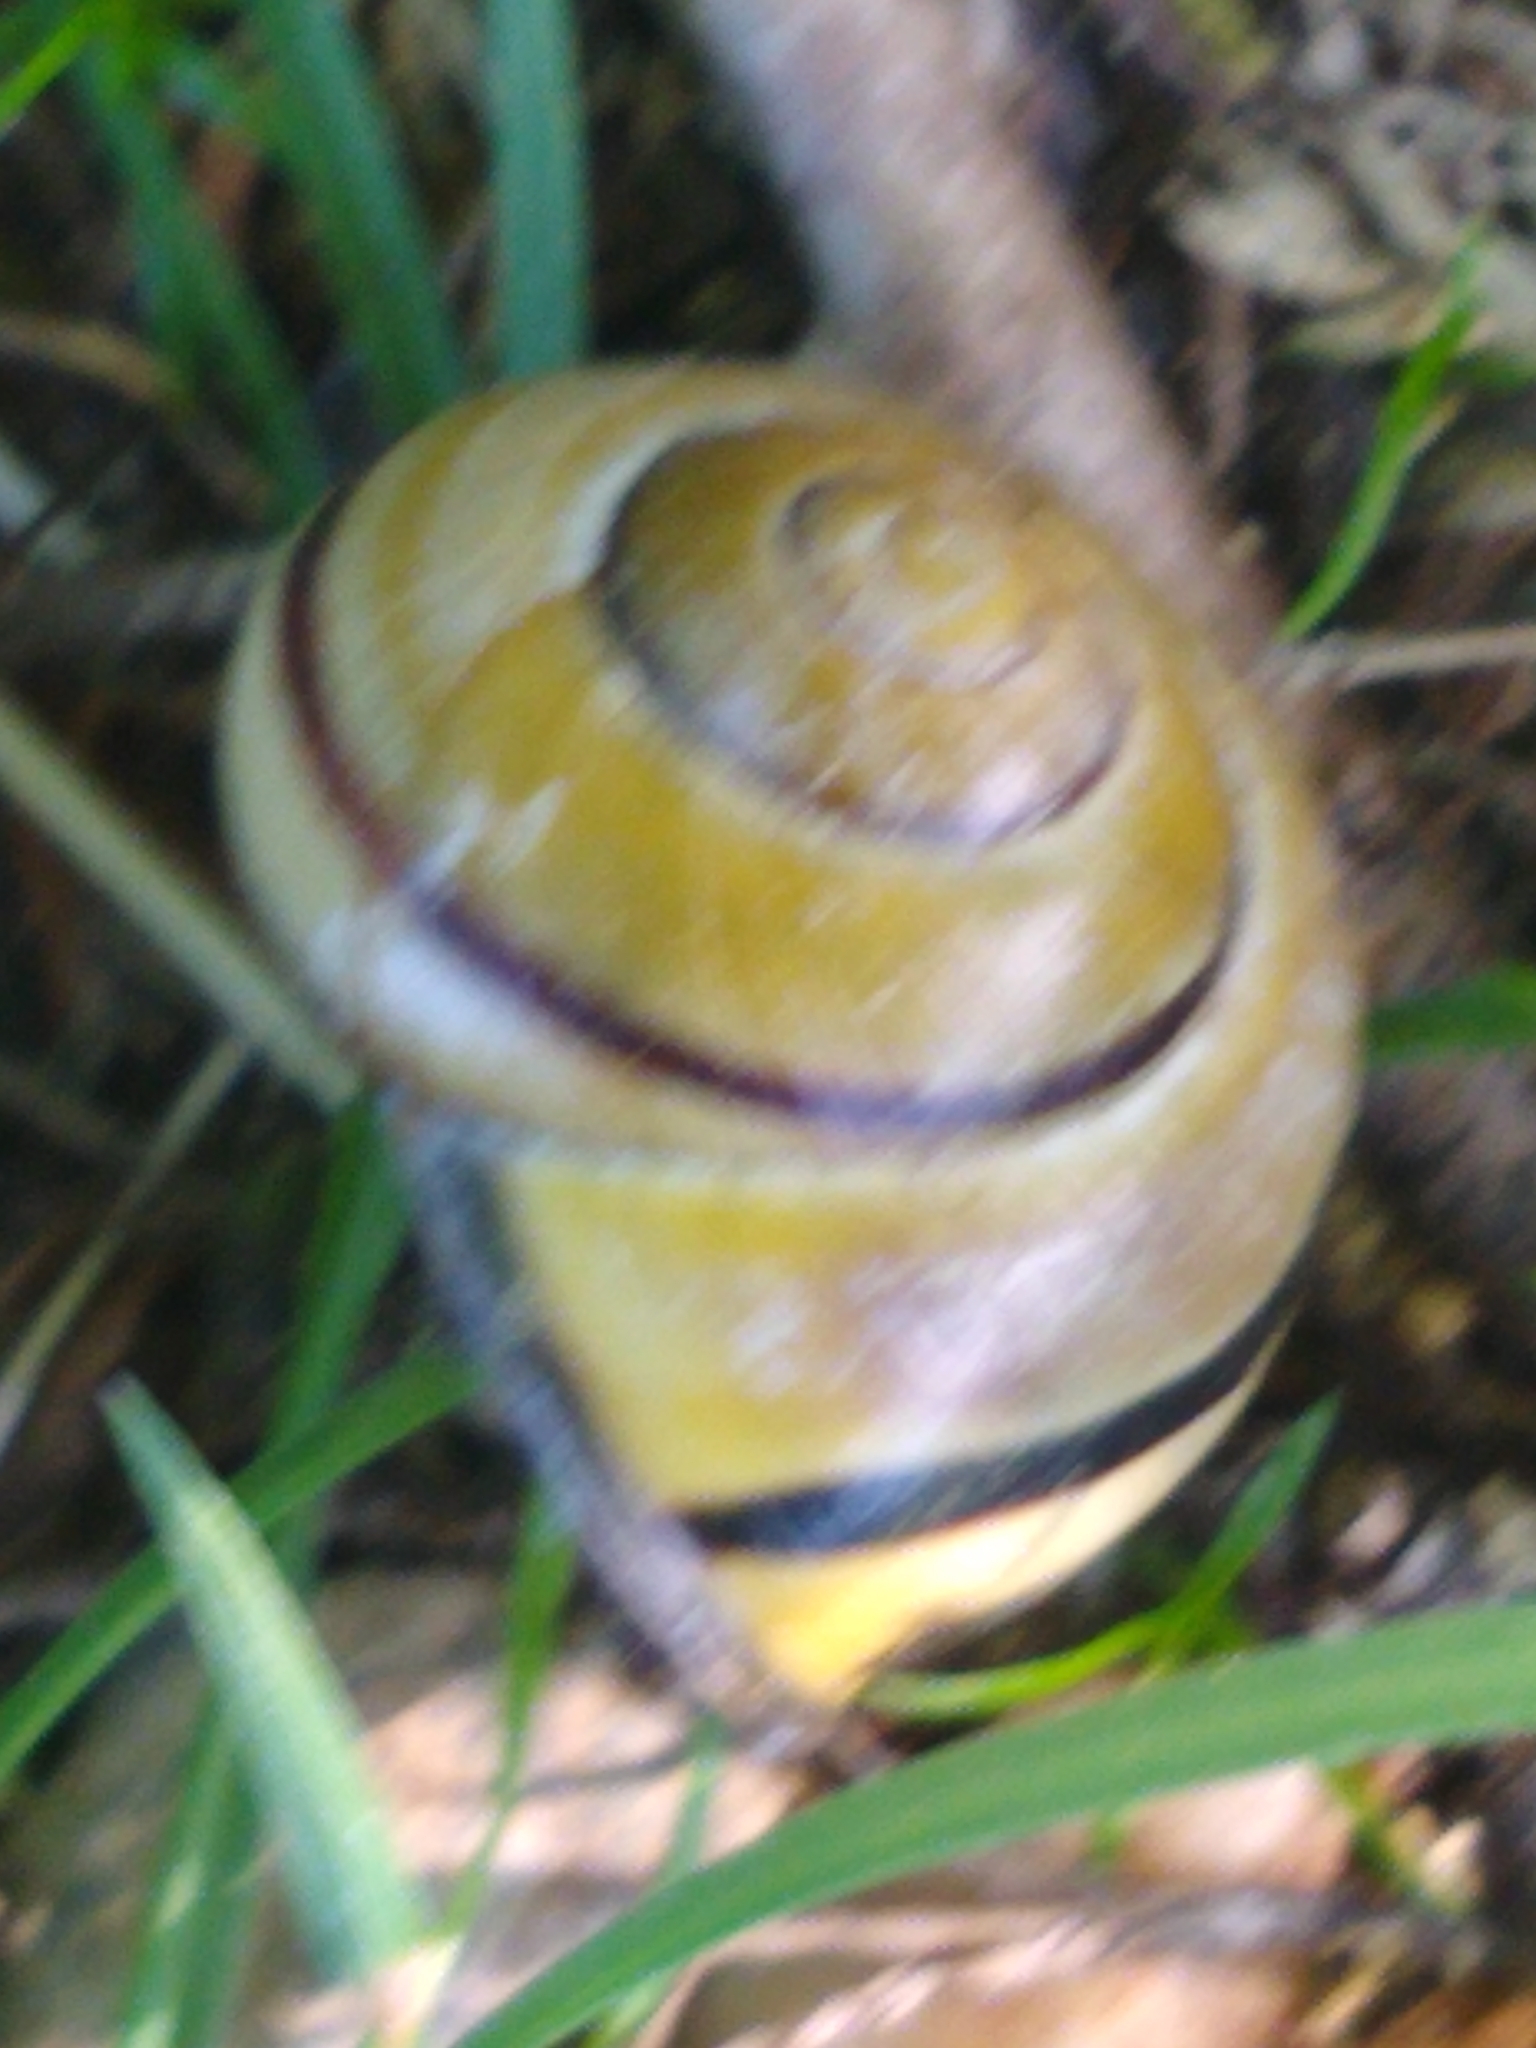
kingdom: Animalia
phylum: Mollusca
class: Gastropoda
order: Stylommatophora
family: Helicidae
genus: Cepaea
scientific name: Cepaea nemoralis
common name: Grovesnail
